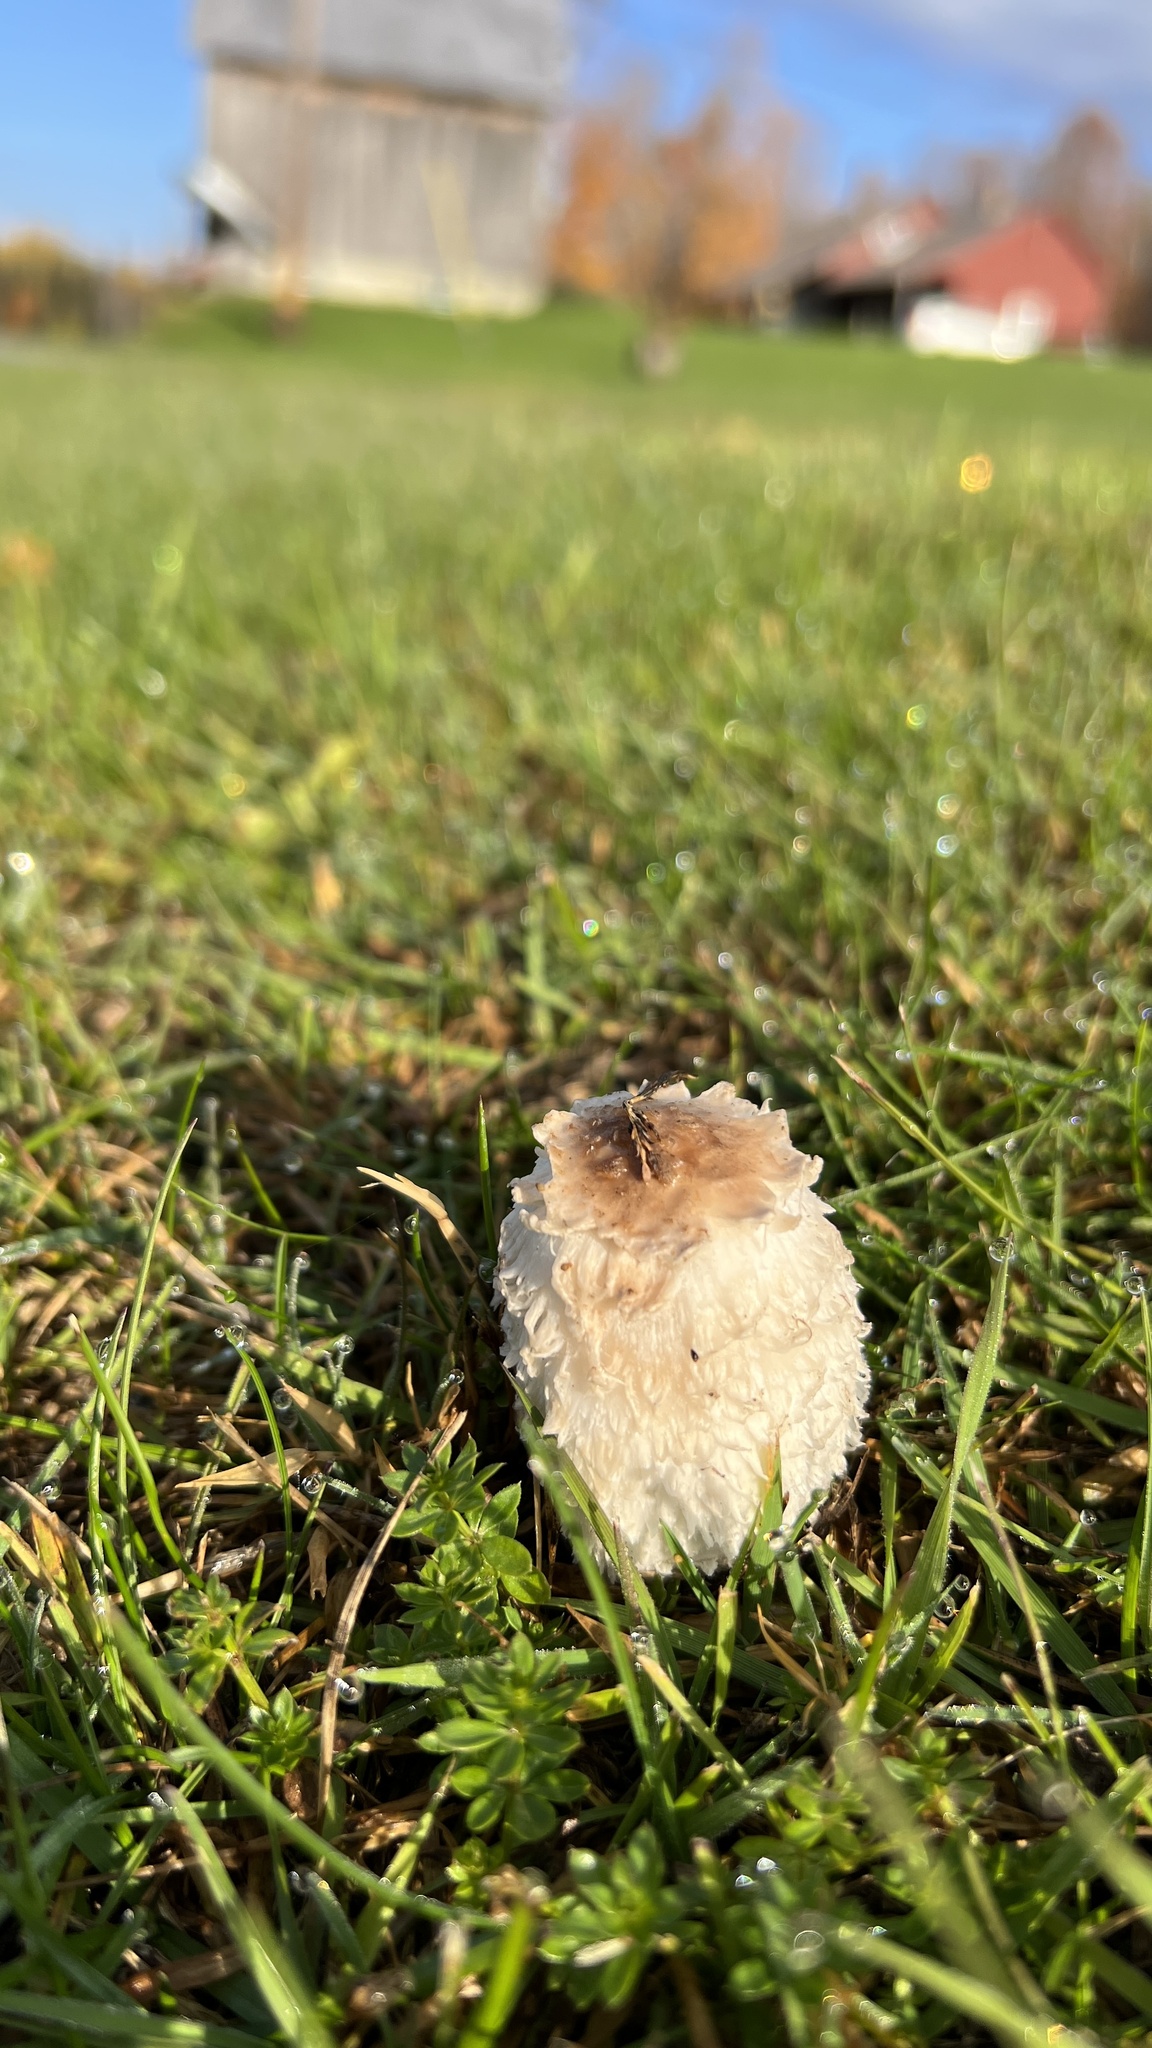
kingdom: Fungi
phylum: Basidiomycota
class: Agaricomycetes
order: Agaricales
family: Agaricaceae
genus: Coprinus
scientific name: Coprinus comatus
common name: Lawyer's wig
